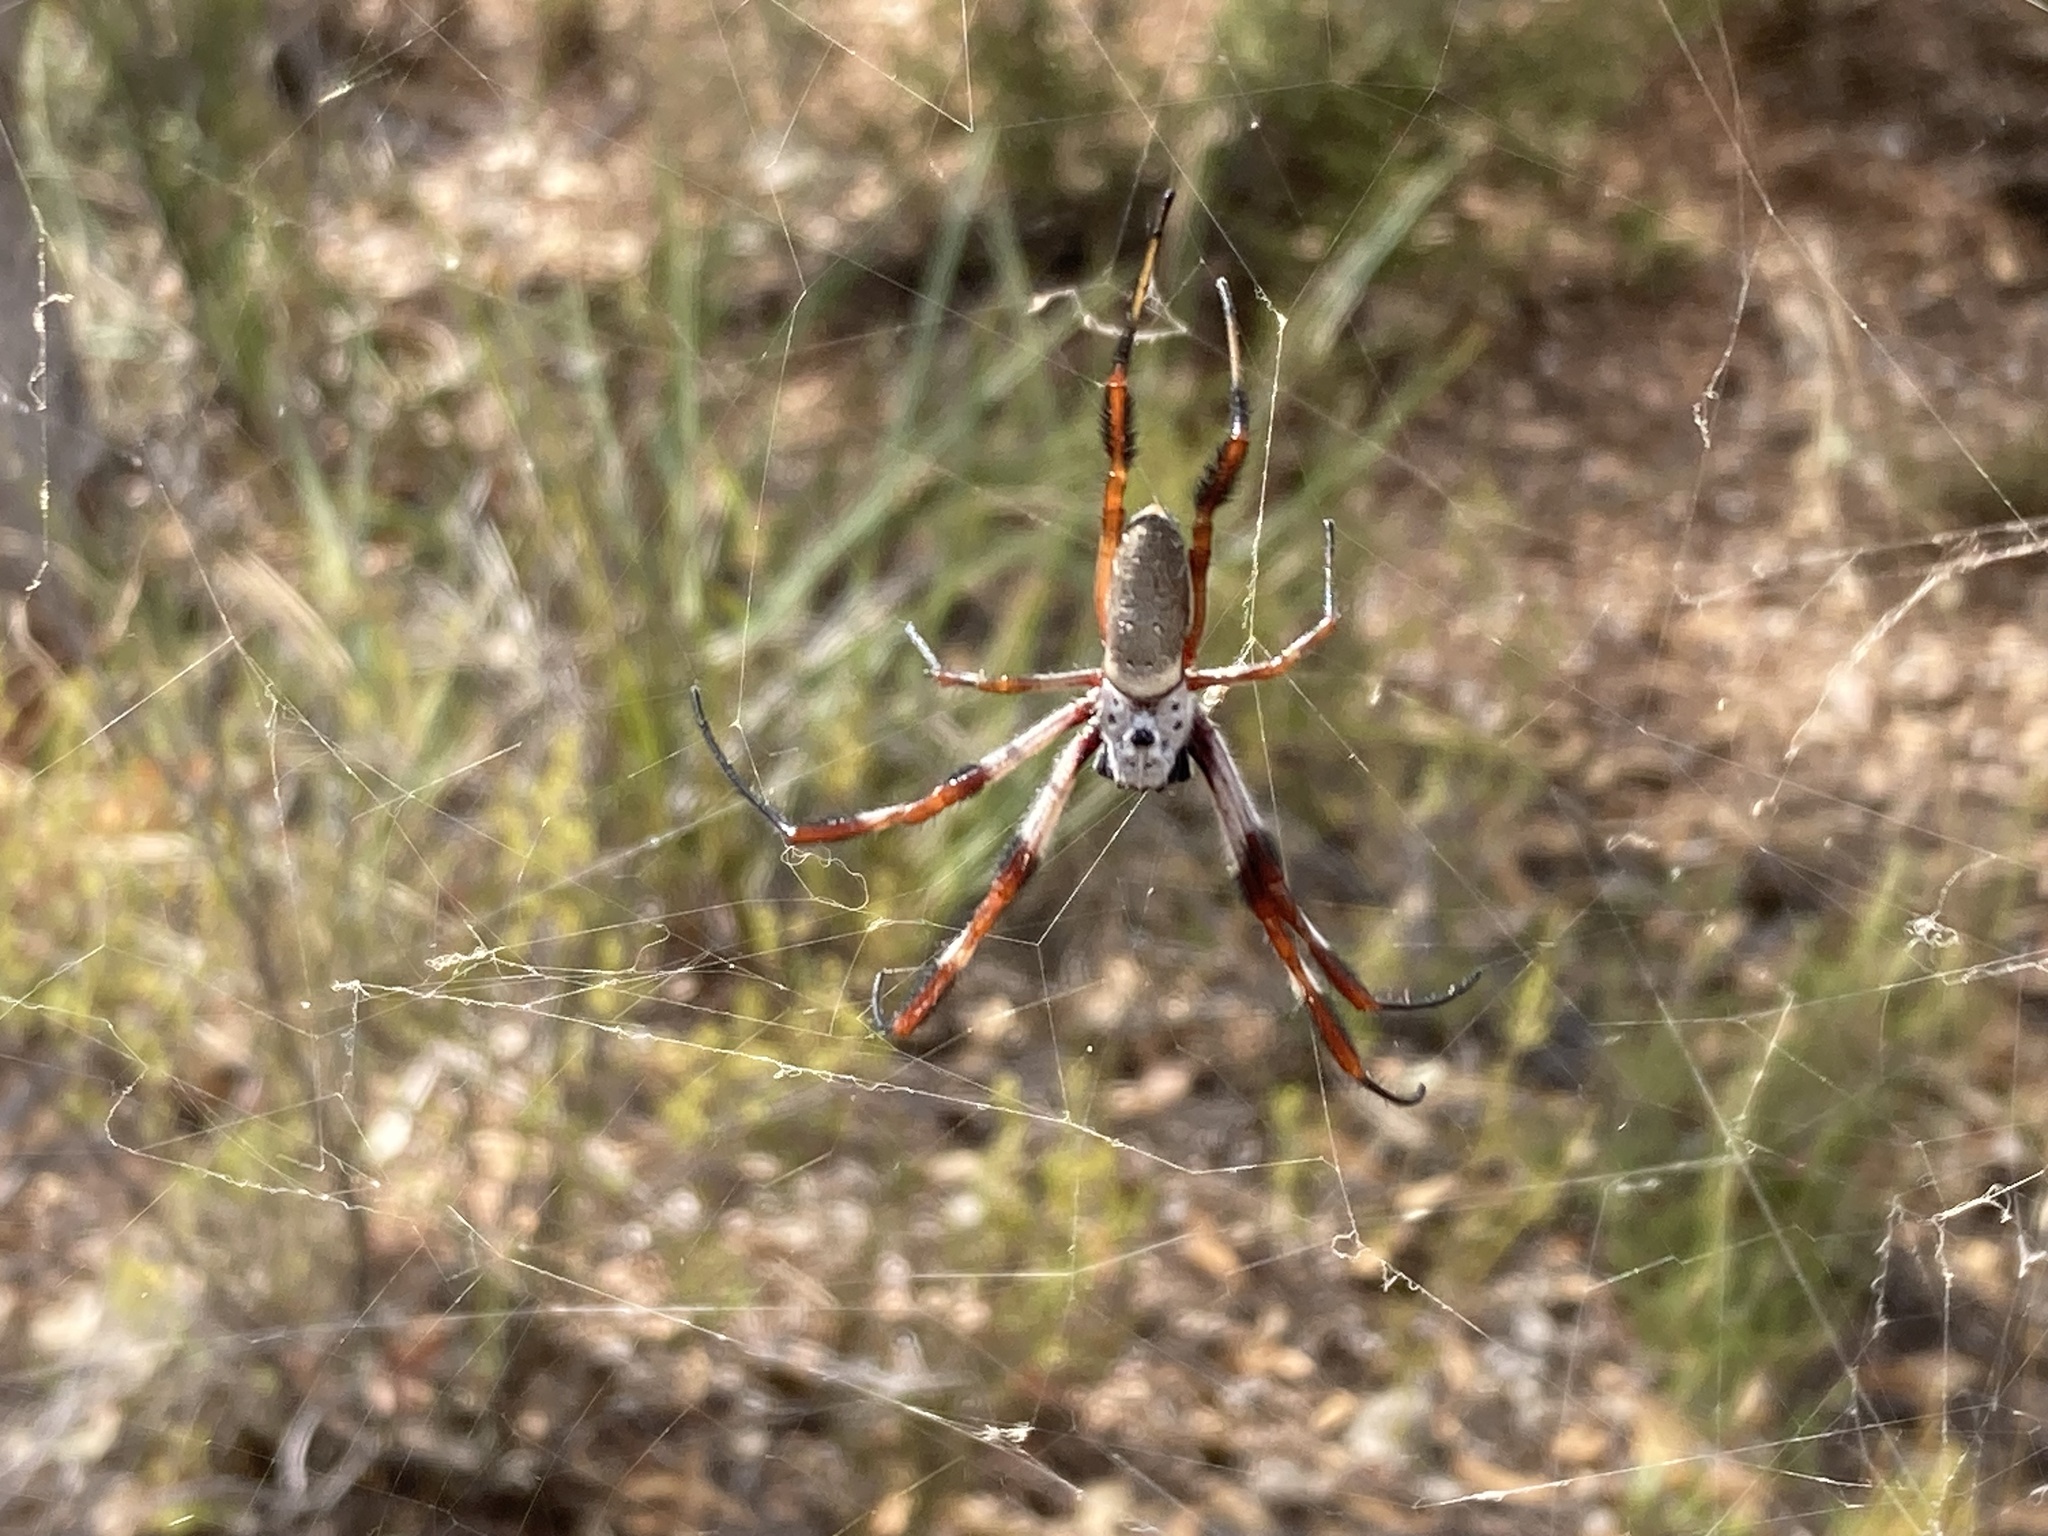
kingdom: Animalia
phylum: Arthropoda
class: Arachnida
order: Araneae
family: Araneidae
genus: Trichonephila
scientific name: Trichonephila edulis
